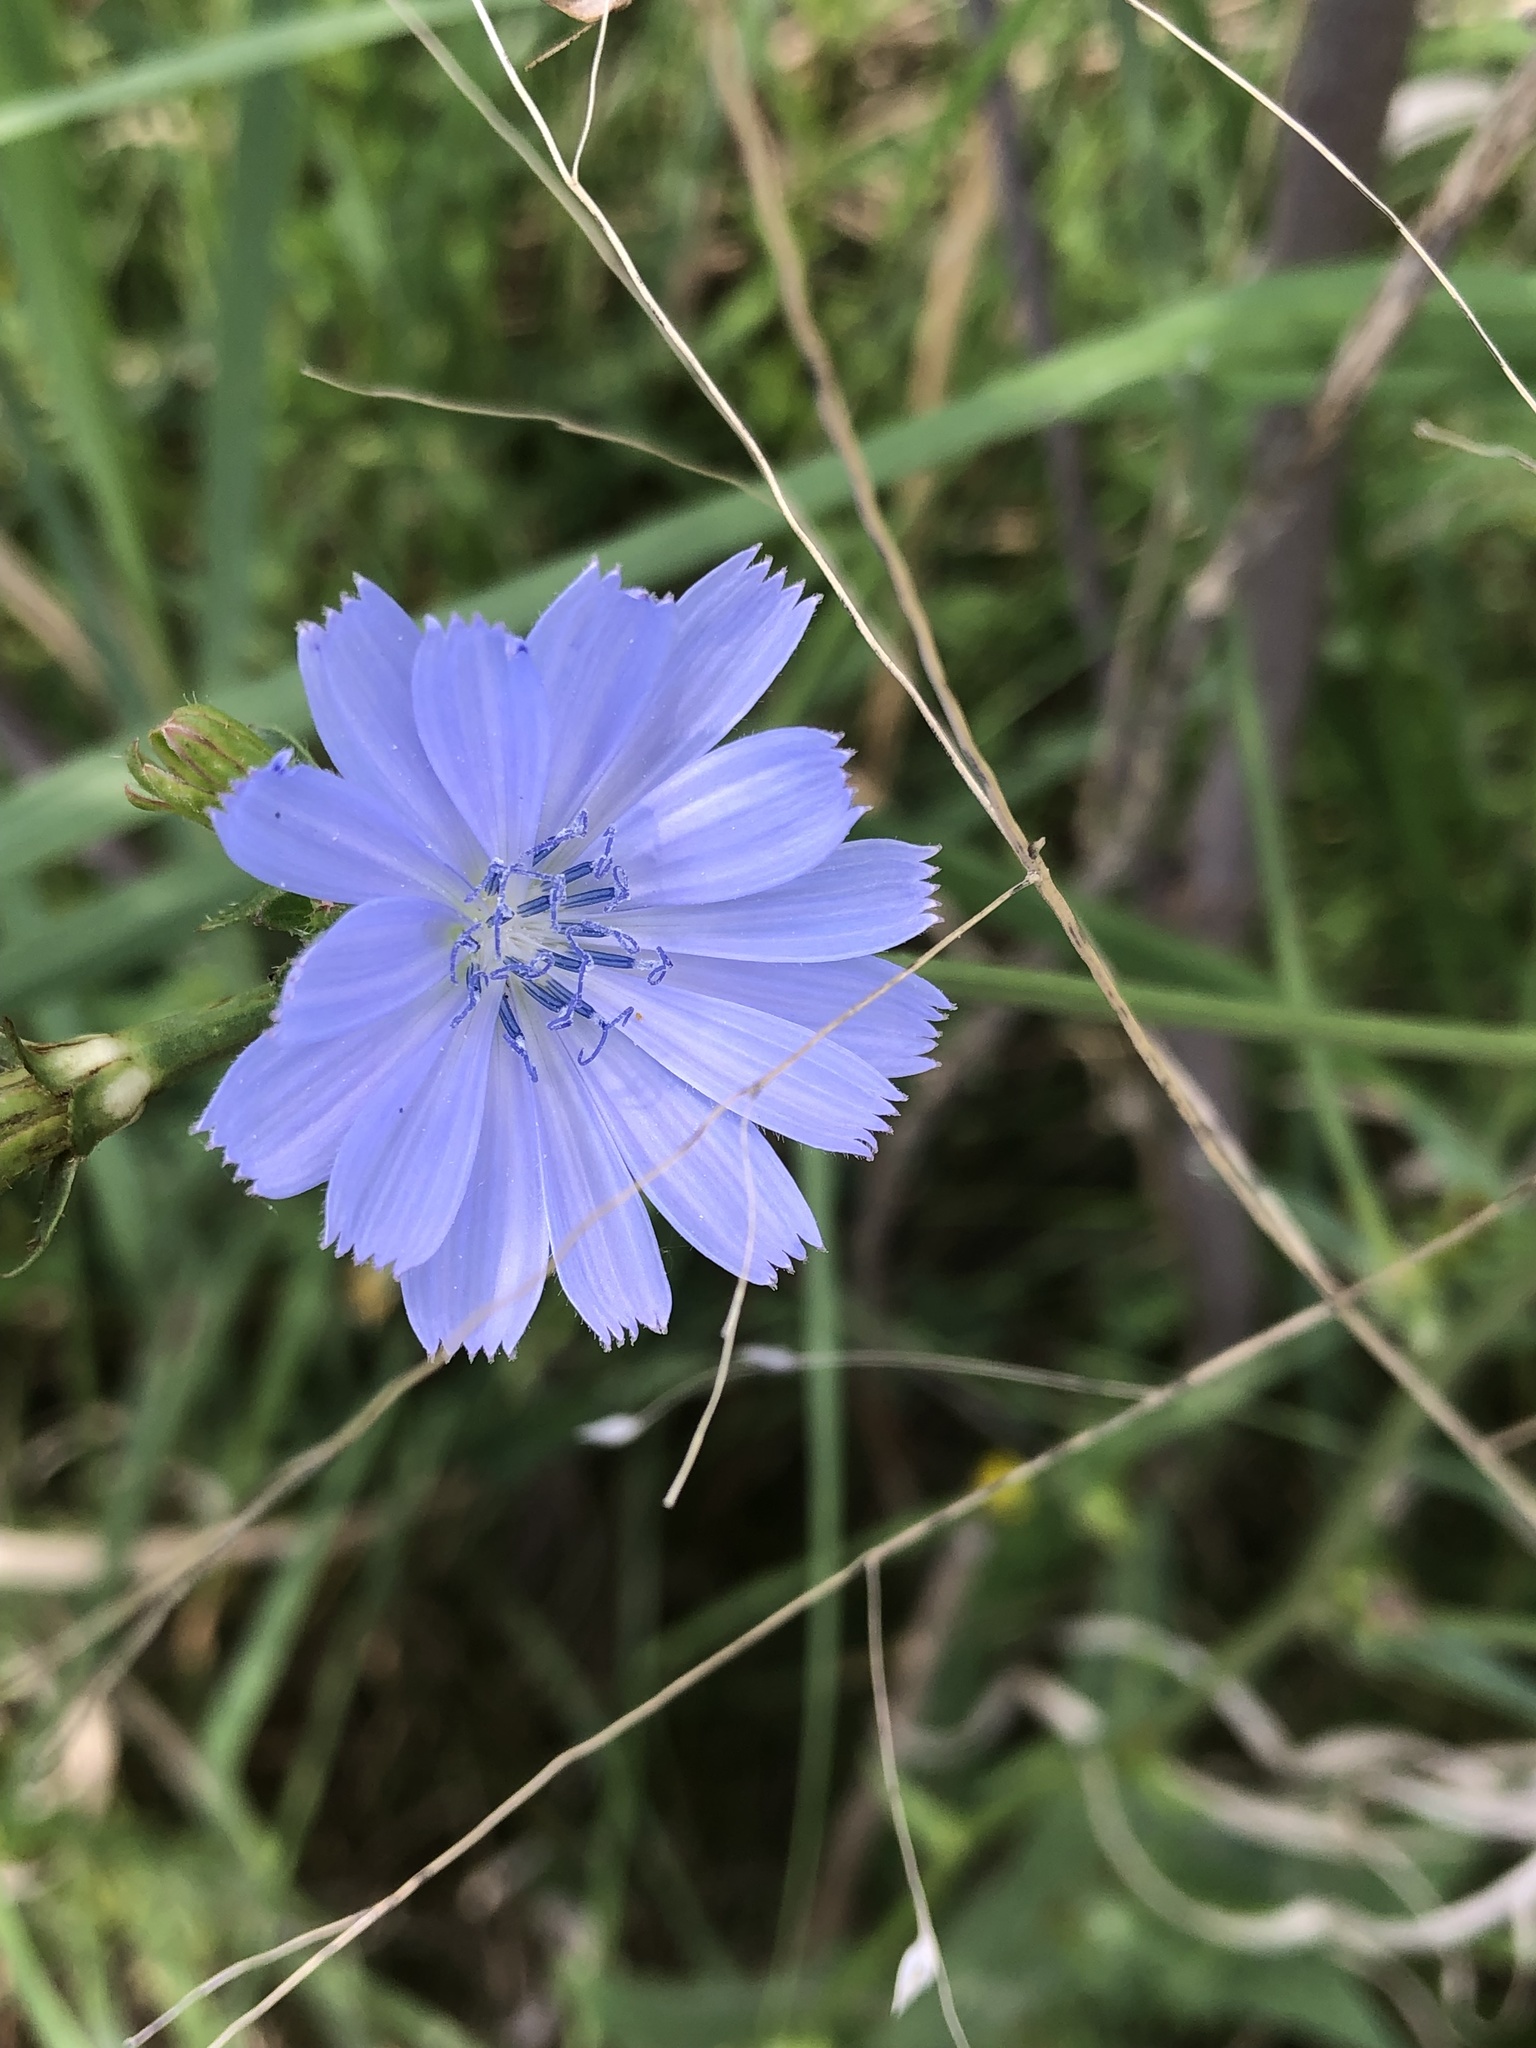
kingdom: Plantae
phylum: Tracheophyta
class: Magnoliopsida
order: Asterales
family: Asteraceae
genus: Cichorium
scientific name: Cichorium intybus
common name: Chicory
